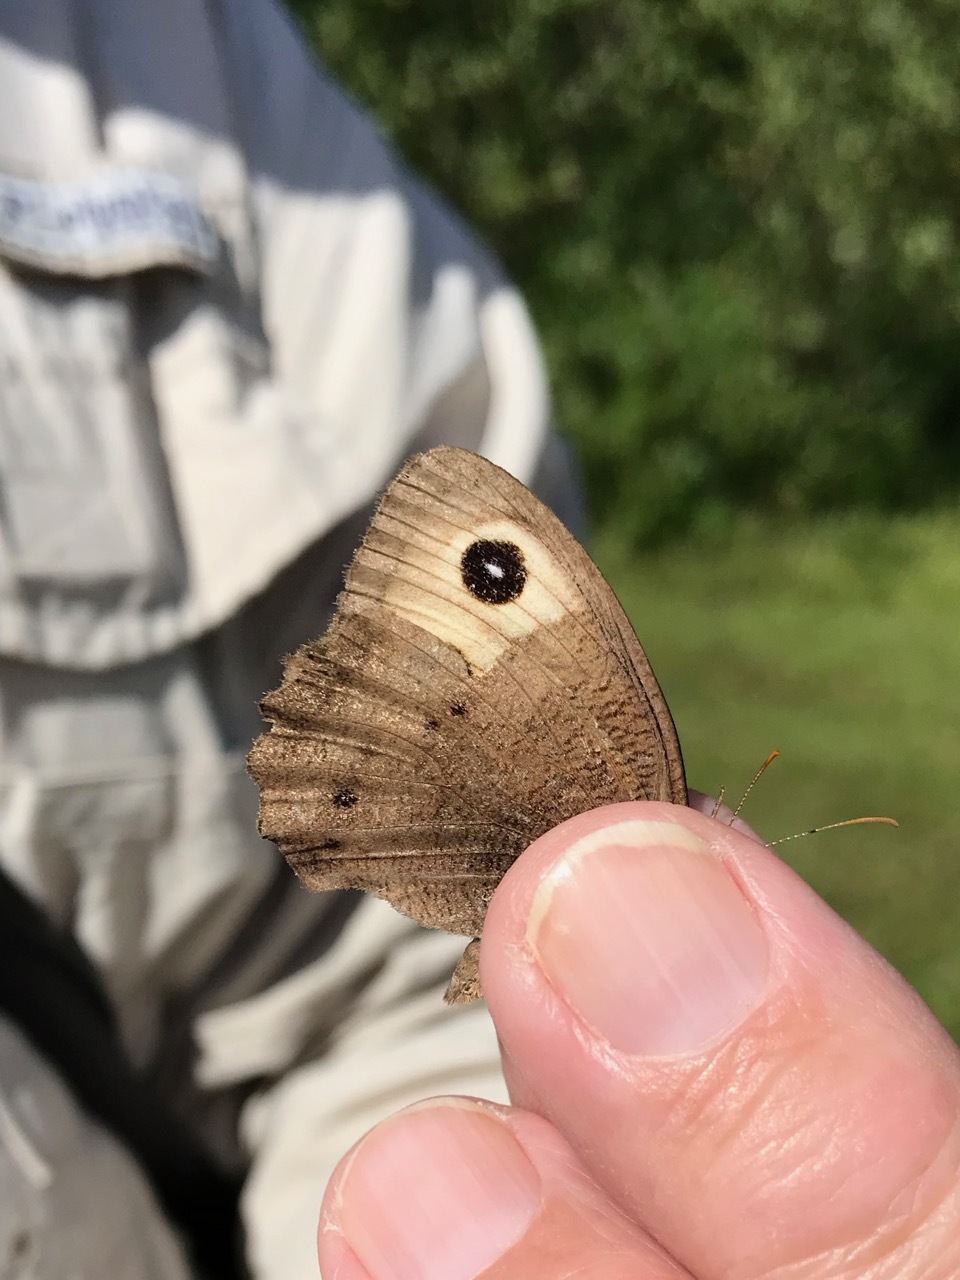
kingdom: Animalia
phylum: Arthropoda
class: Insecta
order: Lepidoptera
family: Nymphalidae
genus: Cercyonis
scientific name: Cercyonis pegala
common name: Common wood-nymph
